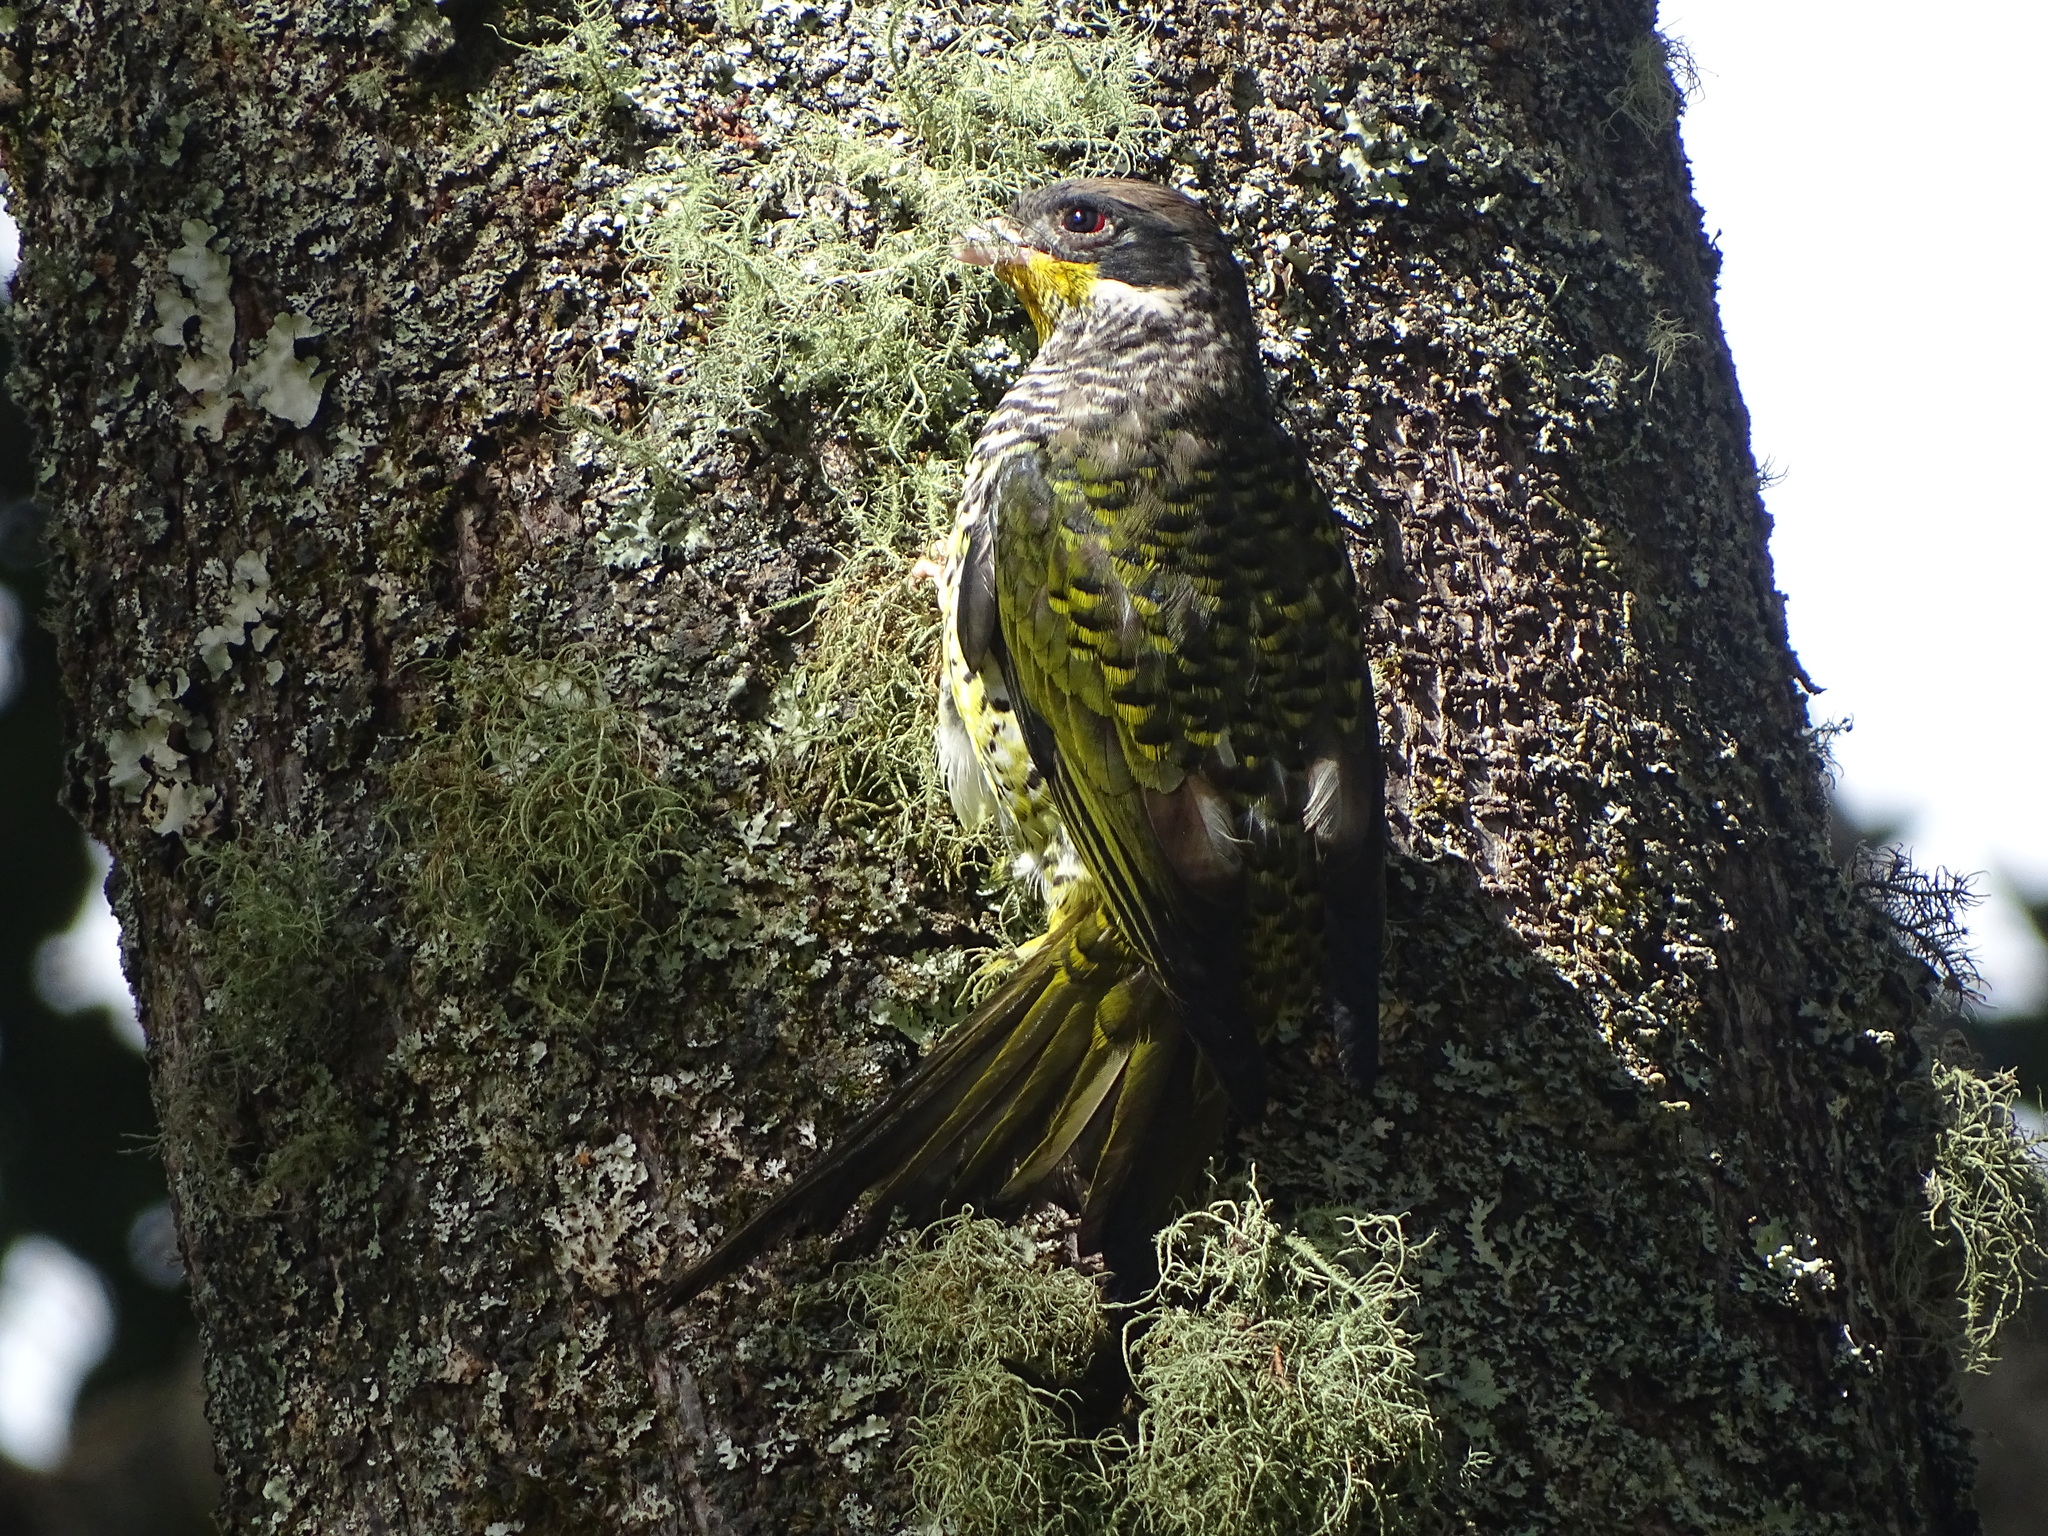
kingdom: Animalia
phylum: Chordata
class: Aves
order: Passeriformes
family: Cotingidae
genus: Phibalura
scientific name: Phibalura flavirostris
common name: Swallow-tailed cotinga
